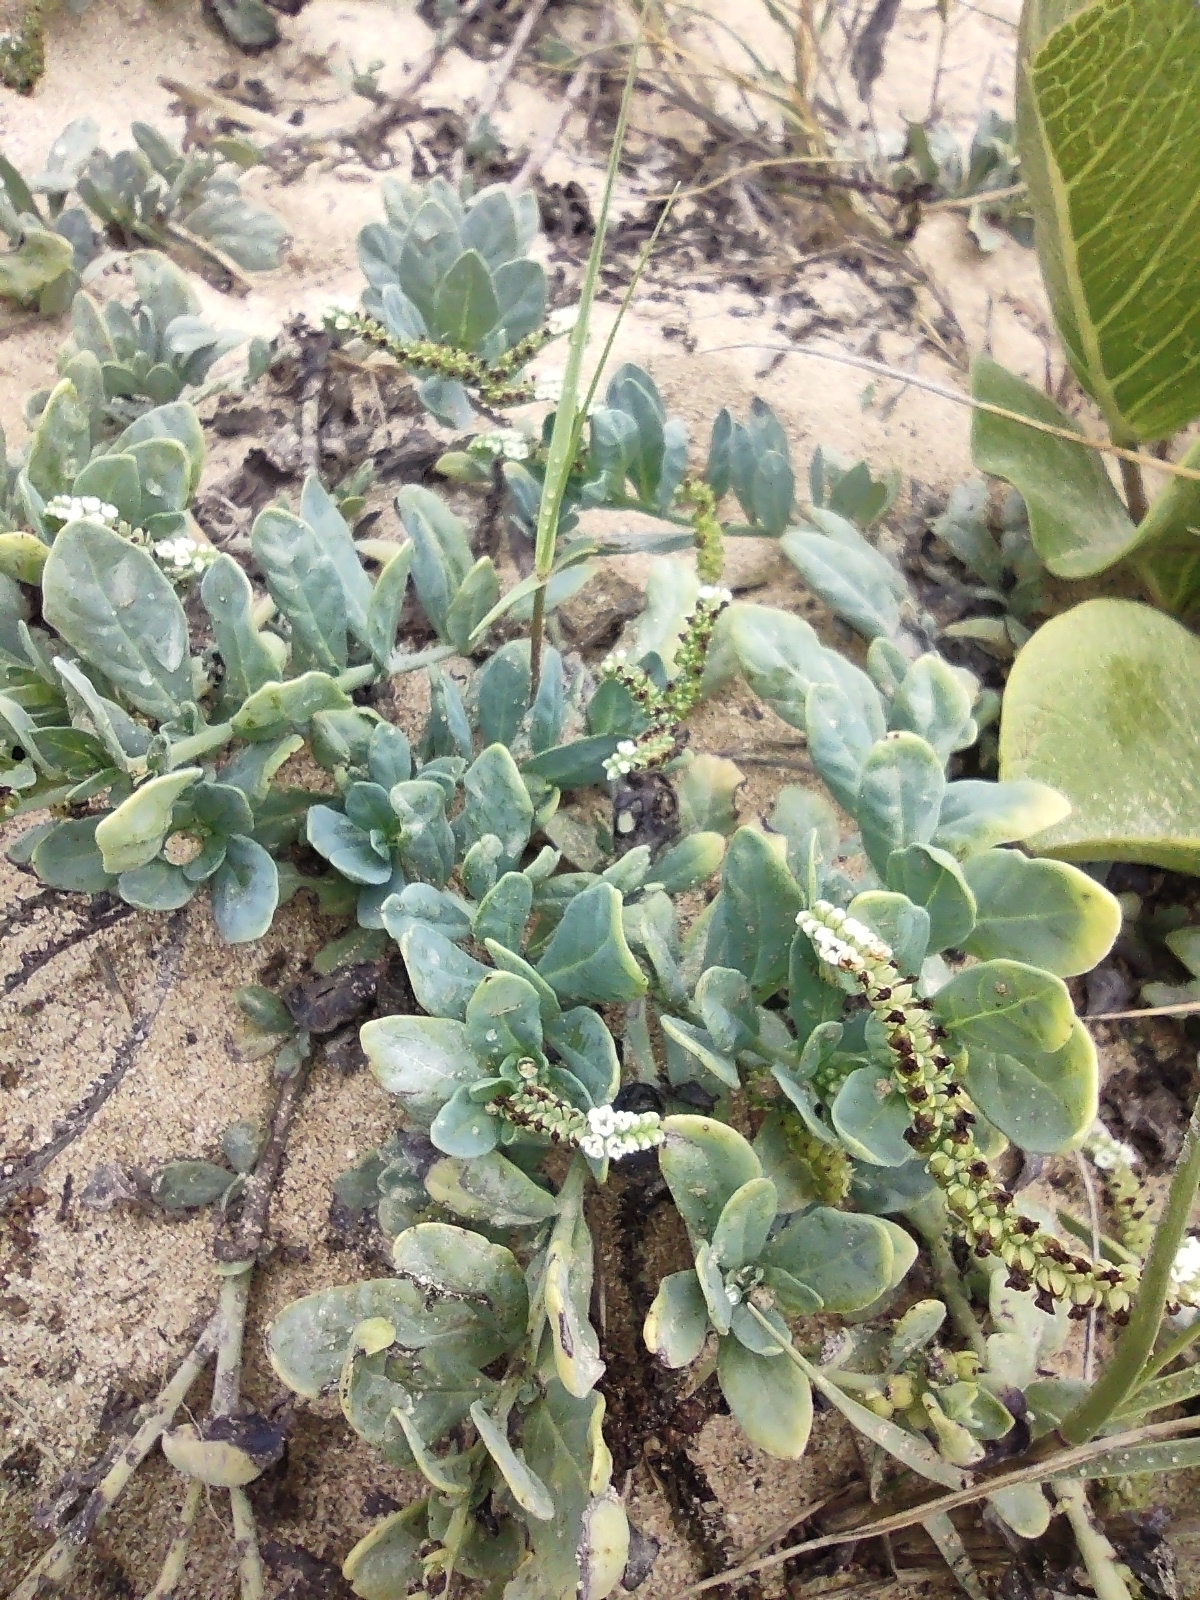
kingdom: Plantae
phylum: Tracheophyta
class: Magnoliopsida
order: Boraginales
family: Heliotropiaceae
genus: Heliotropium
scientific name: Heliotropium curassavicum
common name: Seaside heliotrope
